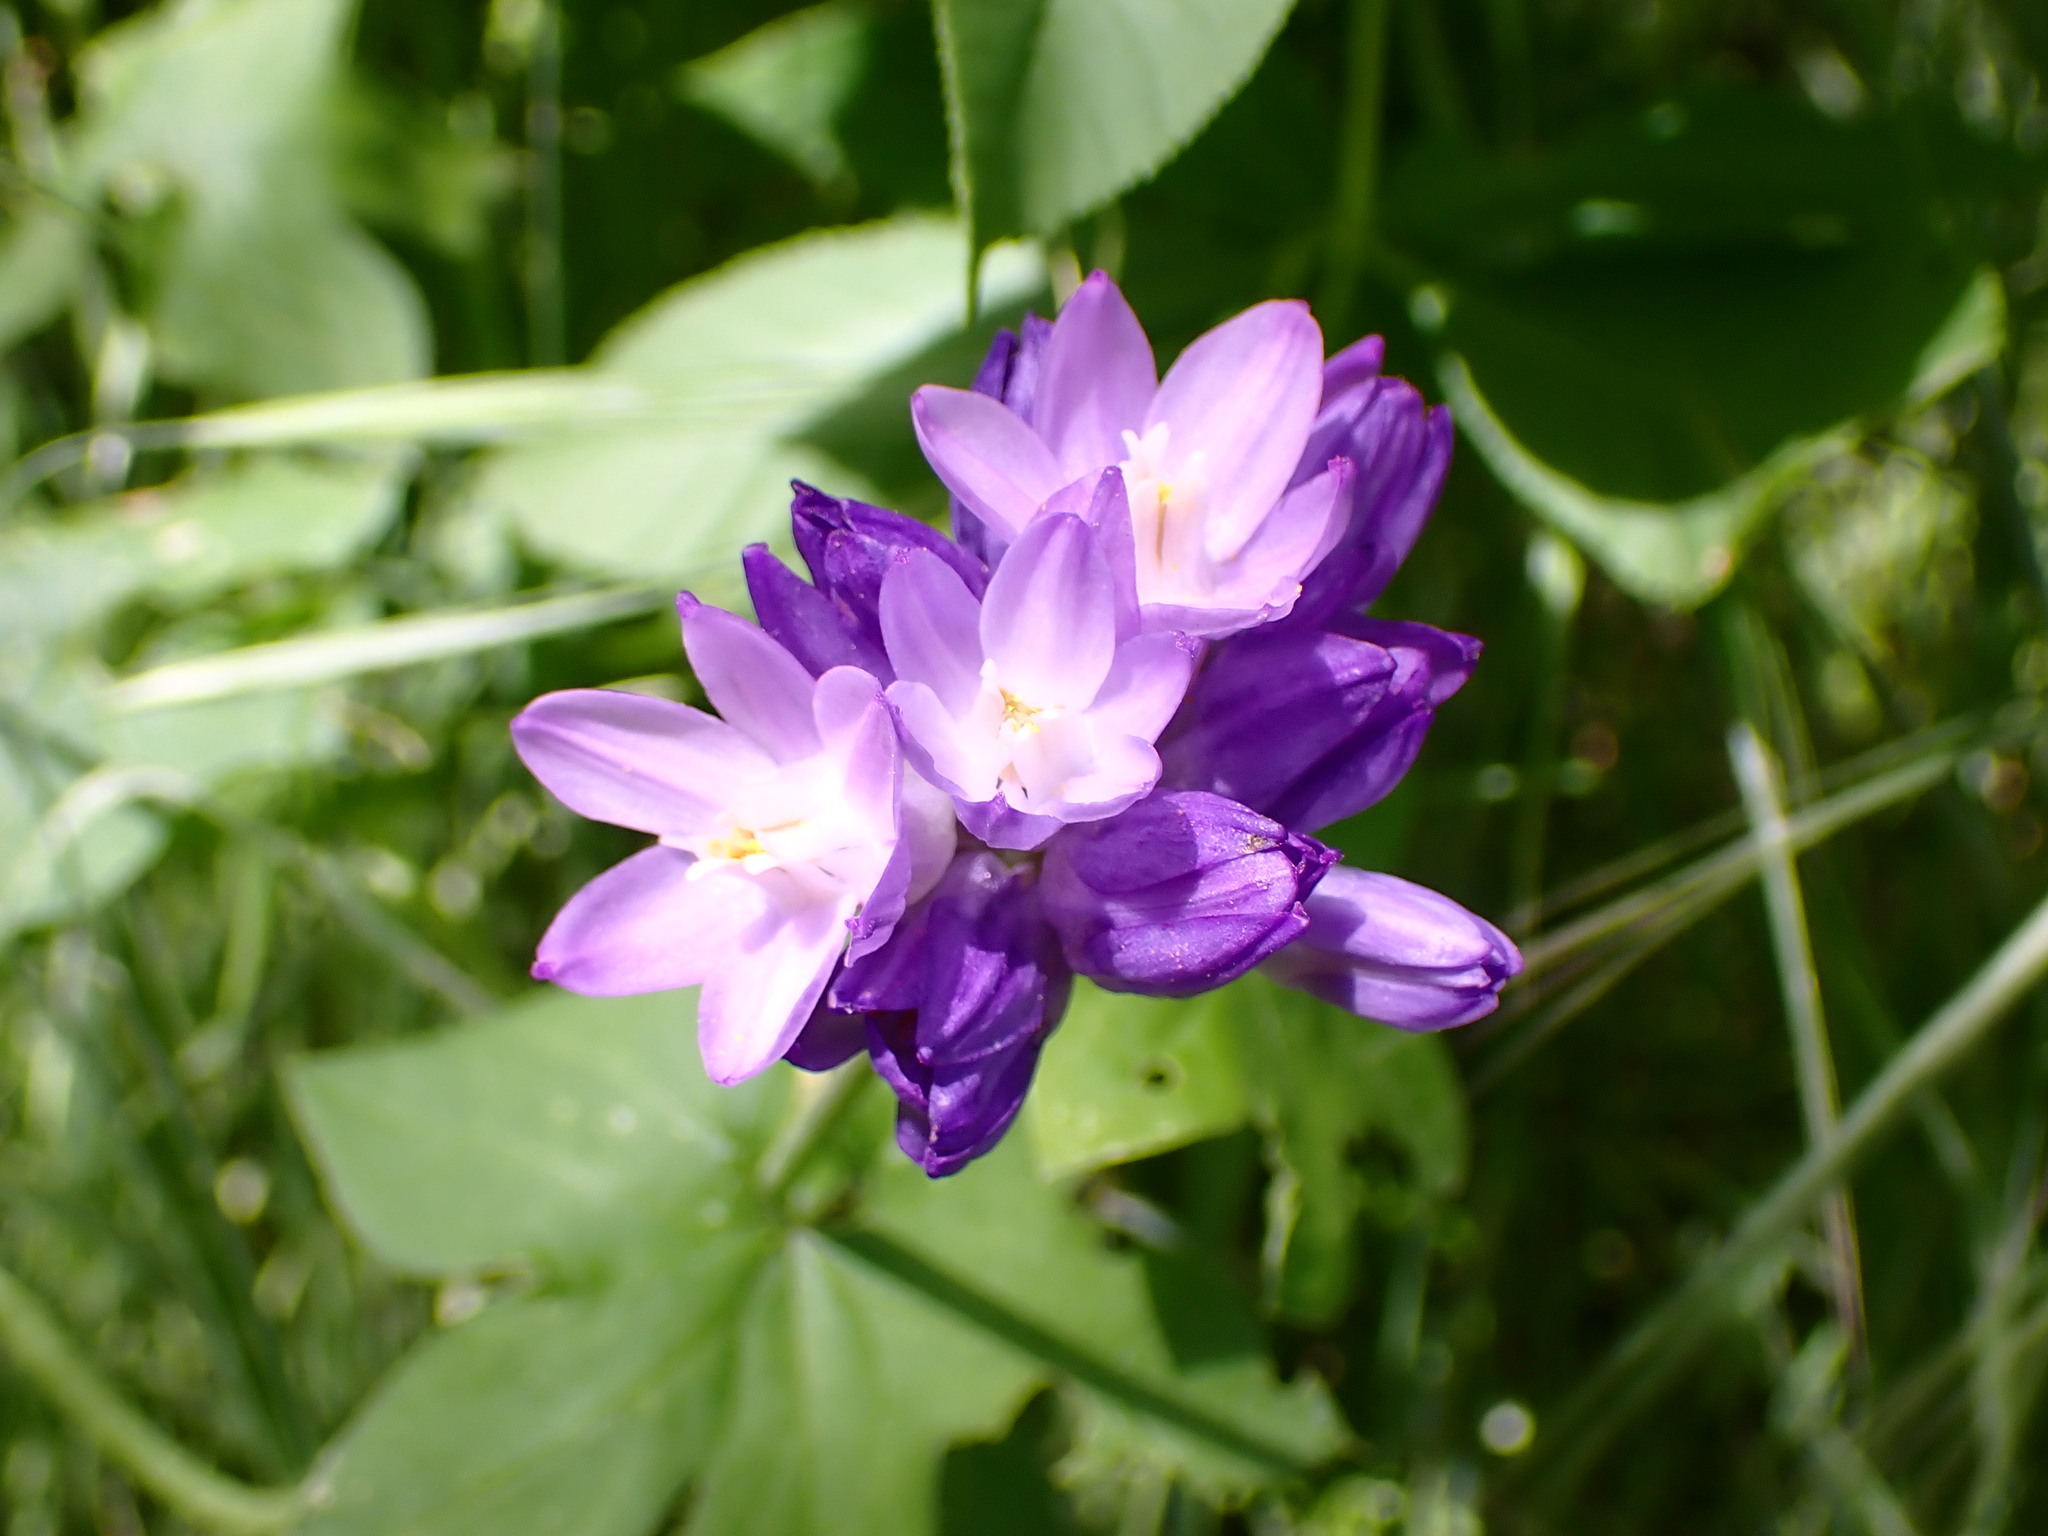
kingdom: Plantae
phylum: Tracheophyta
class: Liliopsida
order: Asparagales
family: Asparagaceae
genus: Dipterostemon
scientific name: Dipterostemon capitatus
